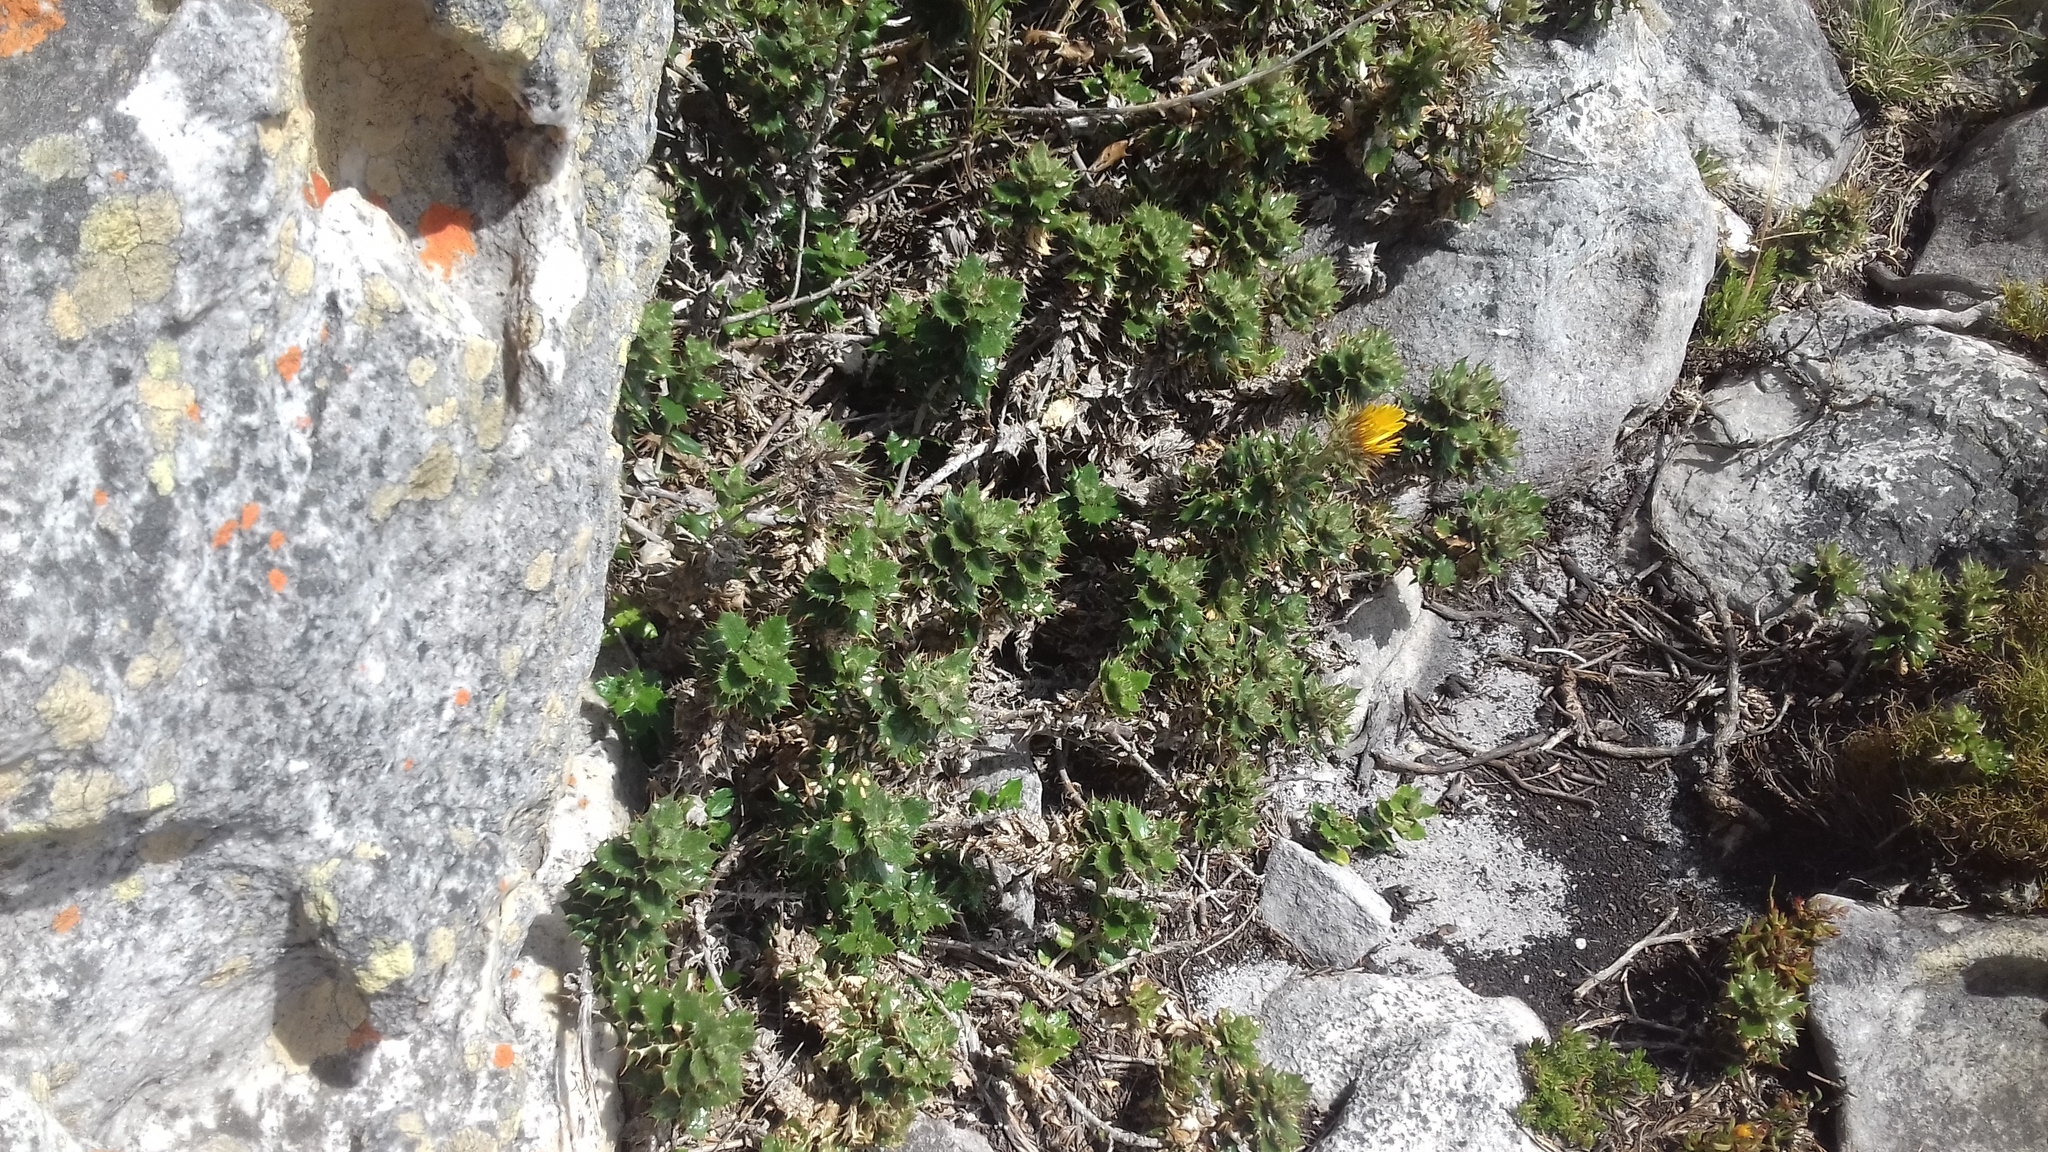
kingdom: Plantae
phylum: Tracheophyta
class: Magnoliopsida
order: Asterales
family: Asteraceae
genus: Berkheya
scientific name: Berkheya barbata
